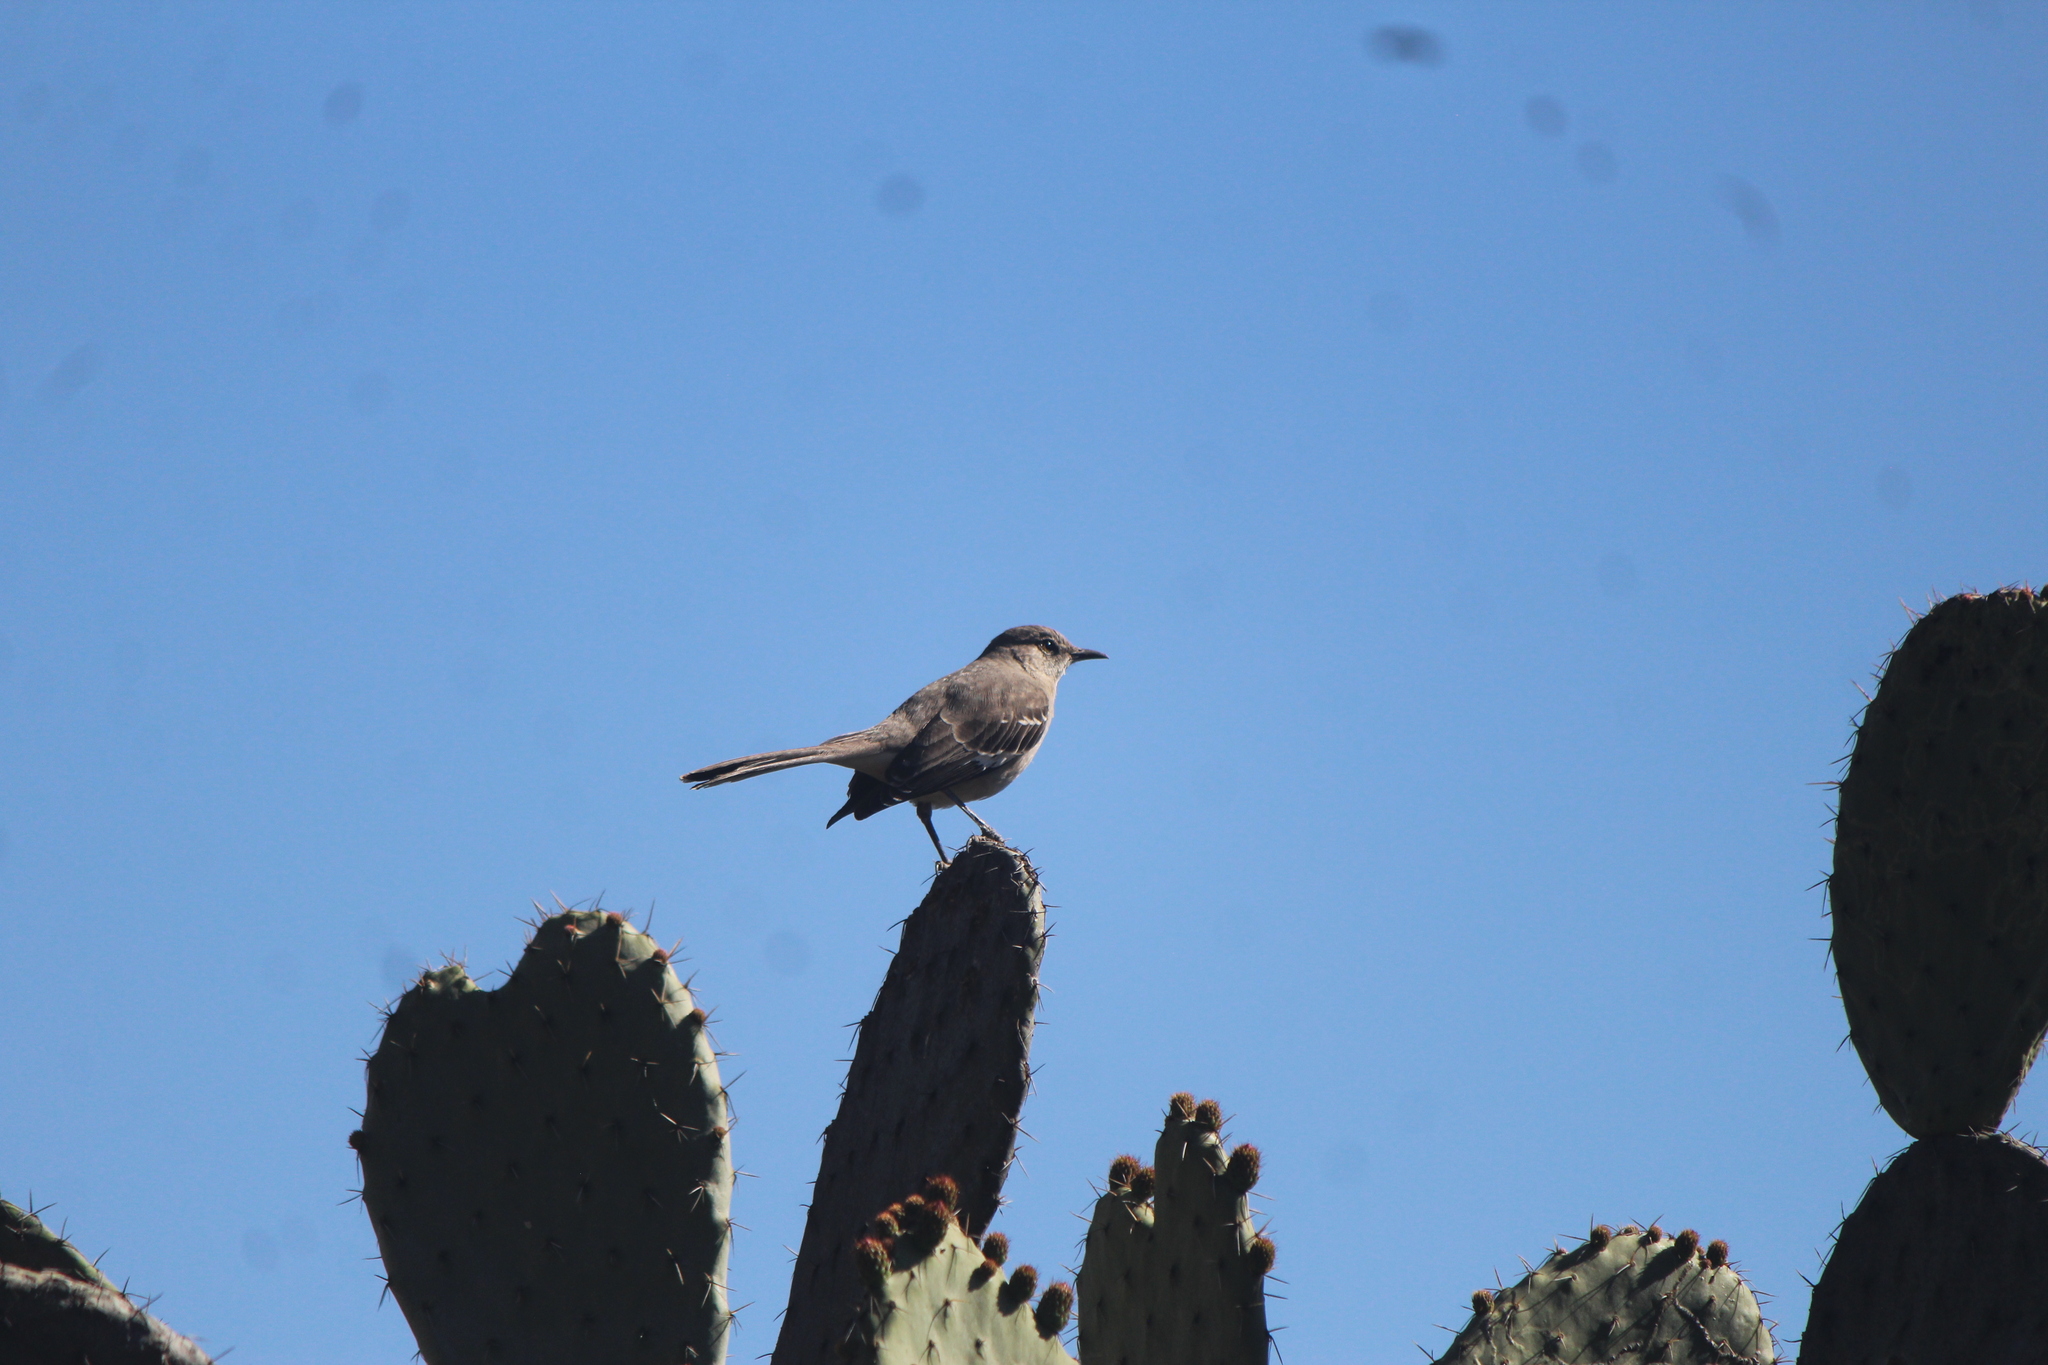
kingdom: Animalia
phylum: Chordata
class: Aves
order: Passeriformes
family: Mimidae
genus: Mimus
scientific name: Mimus polyglottos
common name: Northern mockingbird
